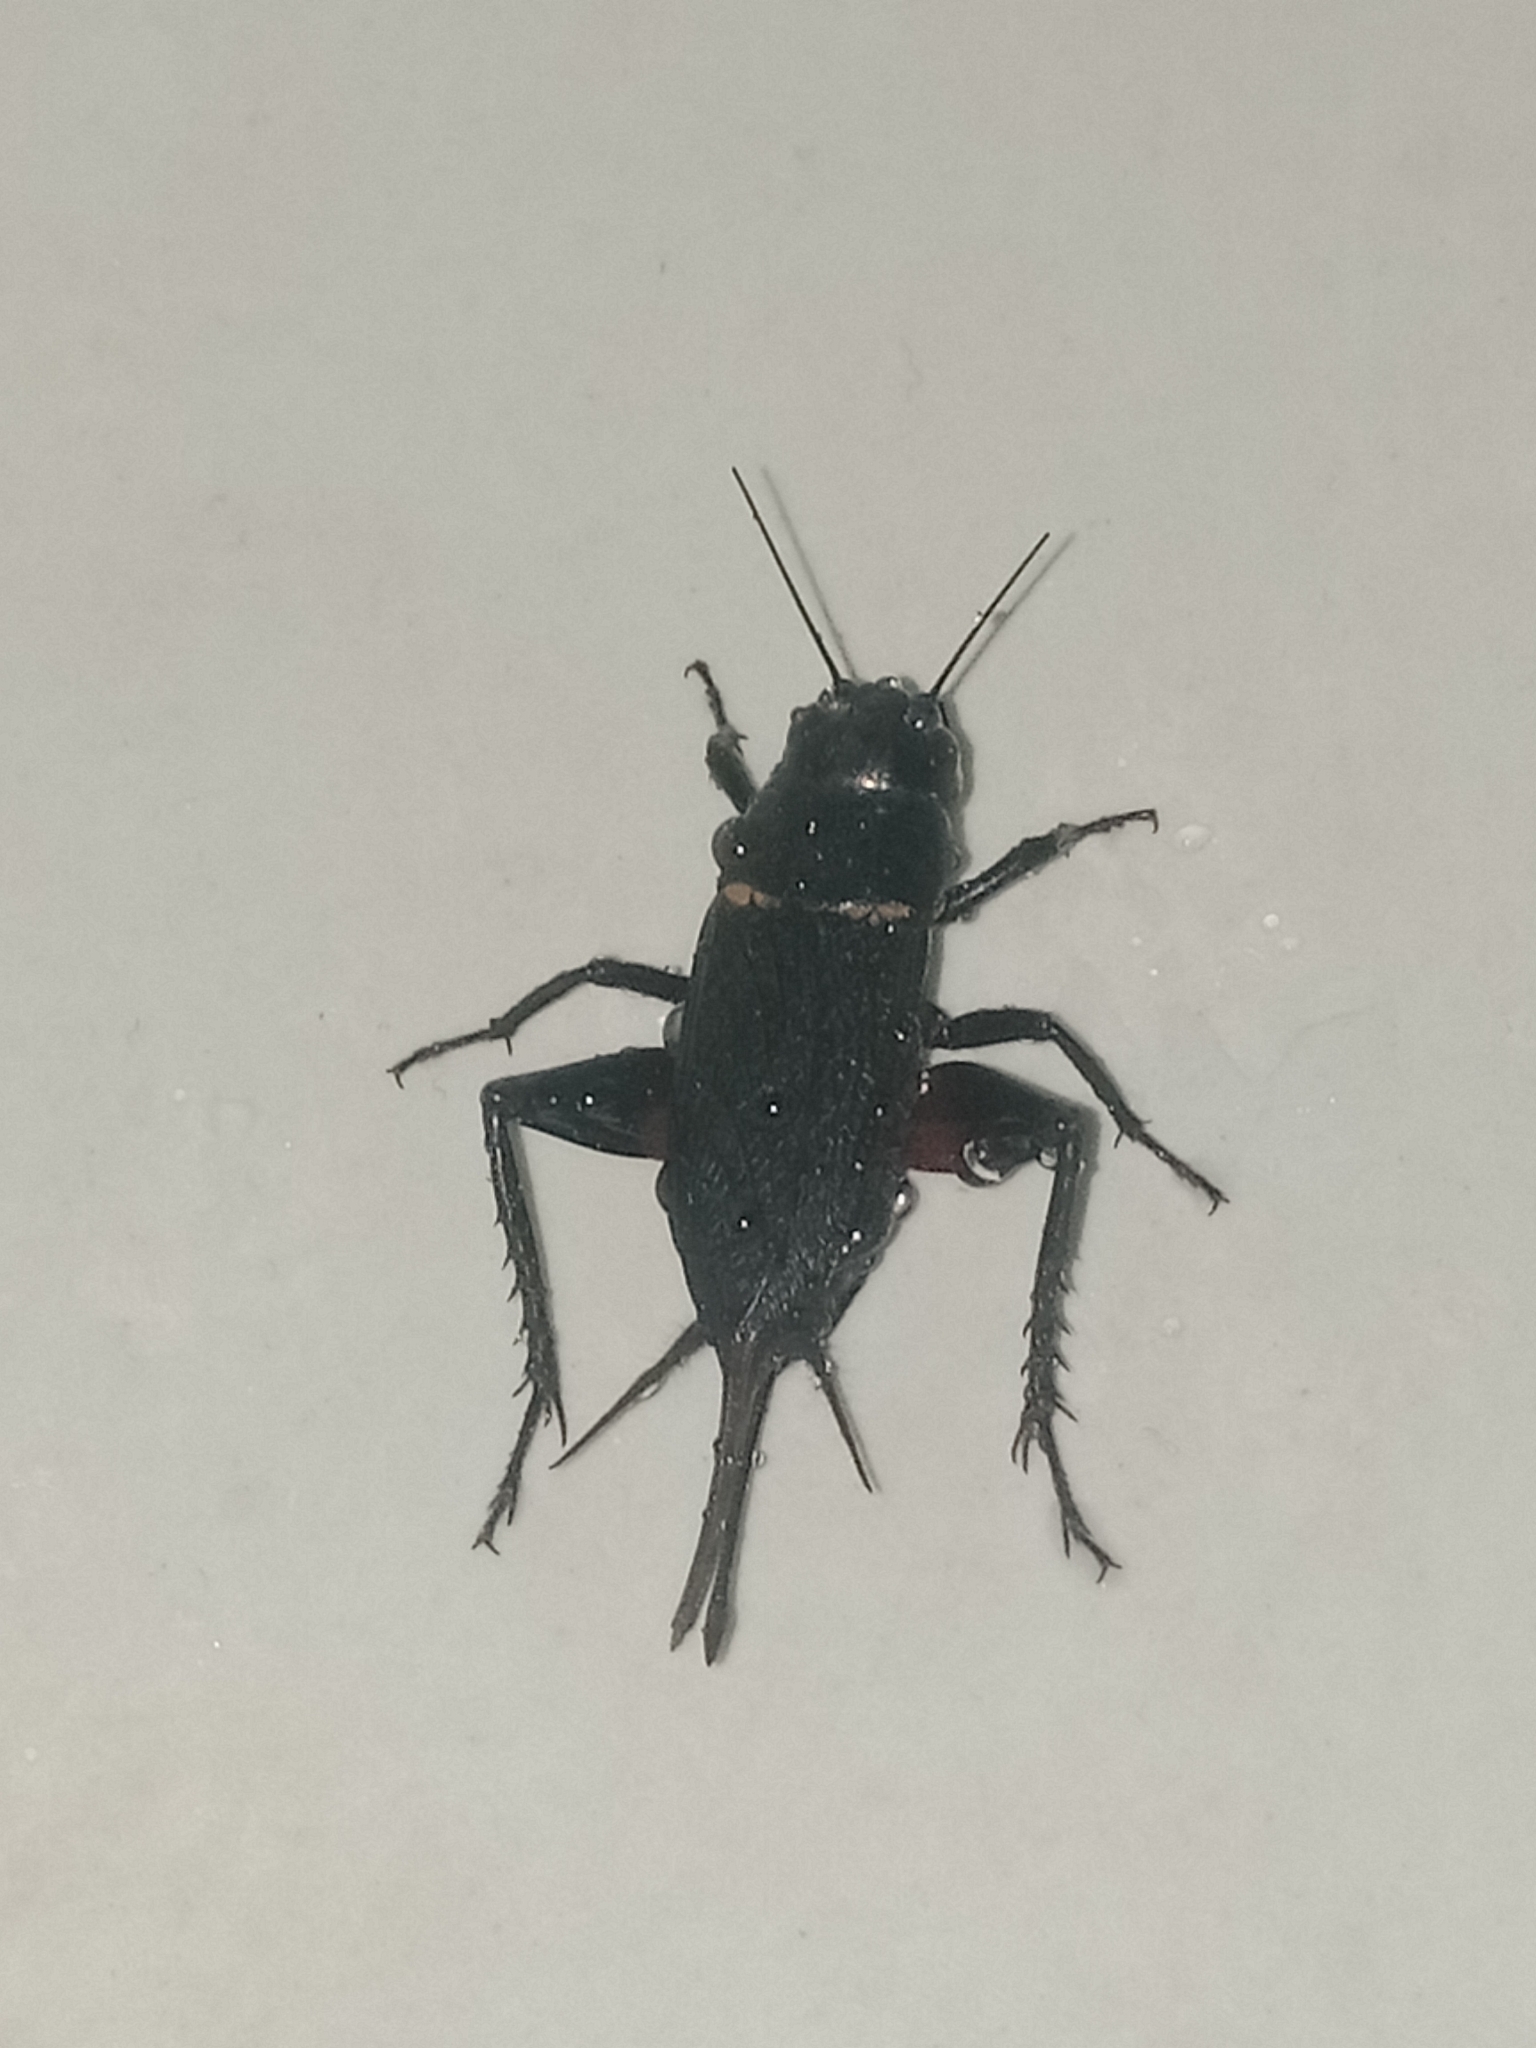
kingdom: Animalia
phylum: Arthropoda
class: Insecta
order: Orthoptera
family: Gryllidae
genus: Gryllus
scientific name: Gryllus bimaculatus
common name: Two-spotted cricket
